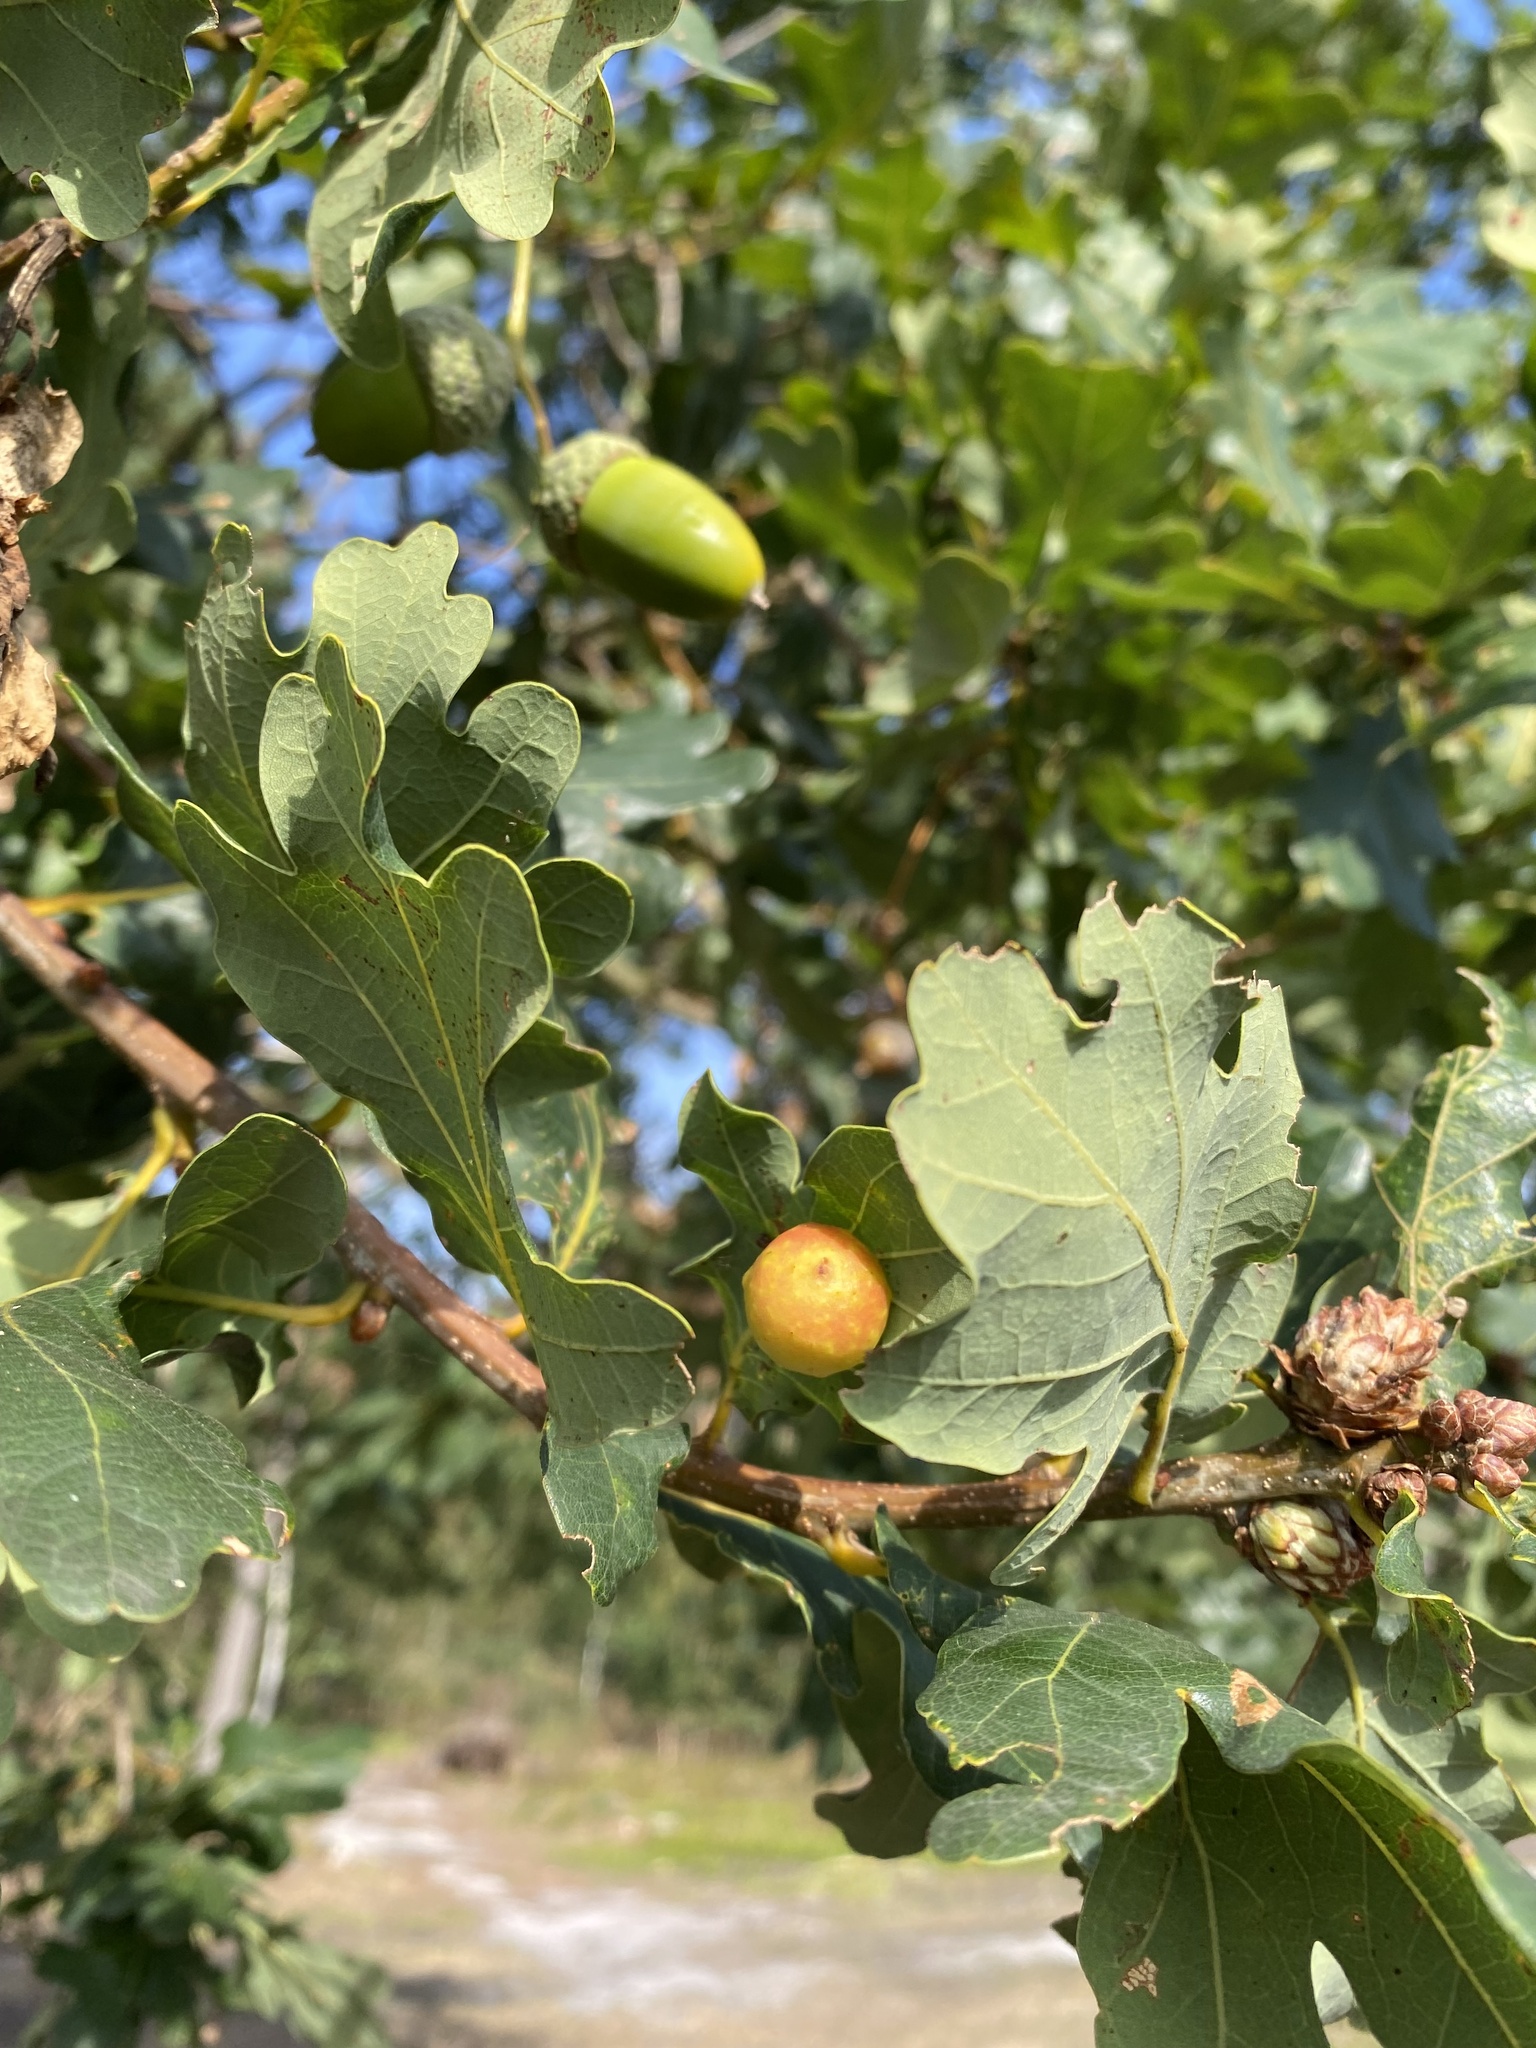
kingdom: Animalia
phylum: Arthropoda
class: Insecta
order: Hymenoptera
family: Cynipidae
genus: Cynips
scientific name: Cynips quercusfolii
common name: Cherry gall
